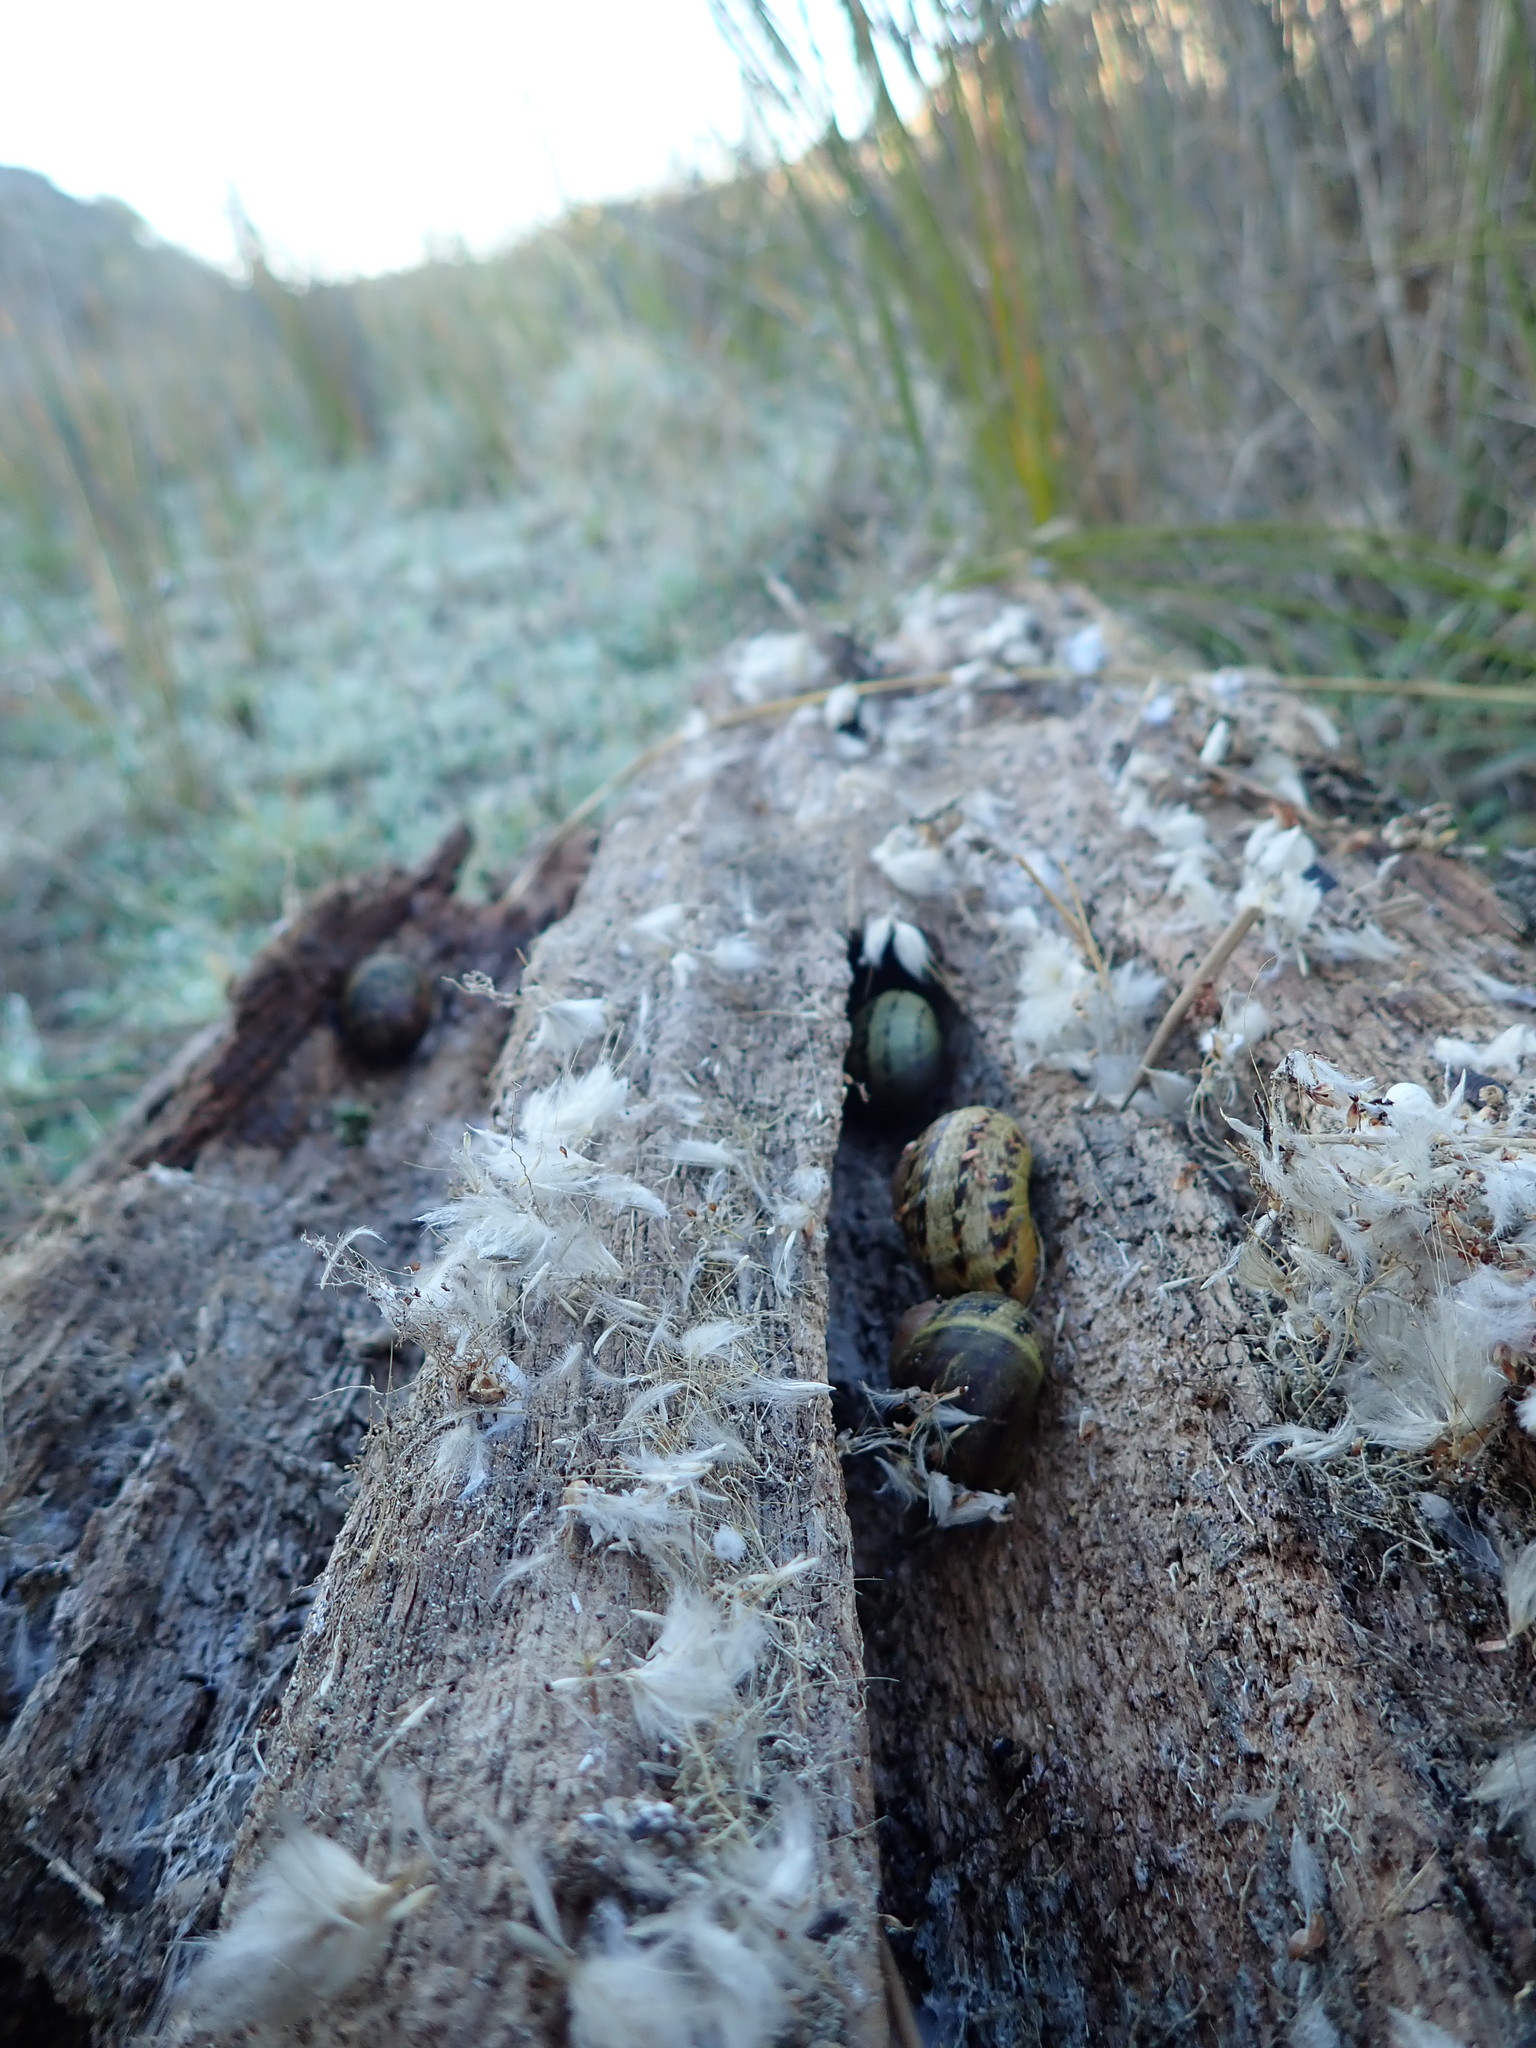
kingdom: Animalia
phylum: Mollusca
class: Gastropoda
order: Stylommatophora
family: Helicidae
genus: Cornu
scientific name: Cornu aspersum
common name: Brown garden snail
